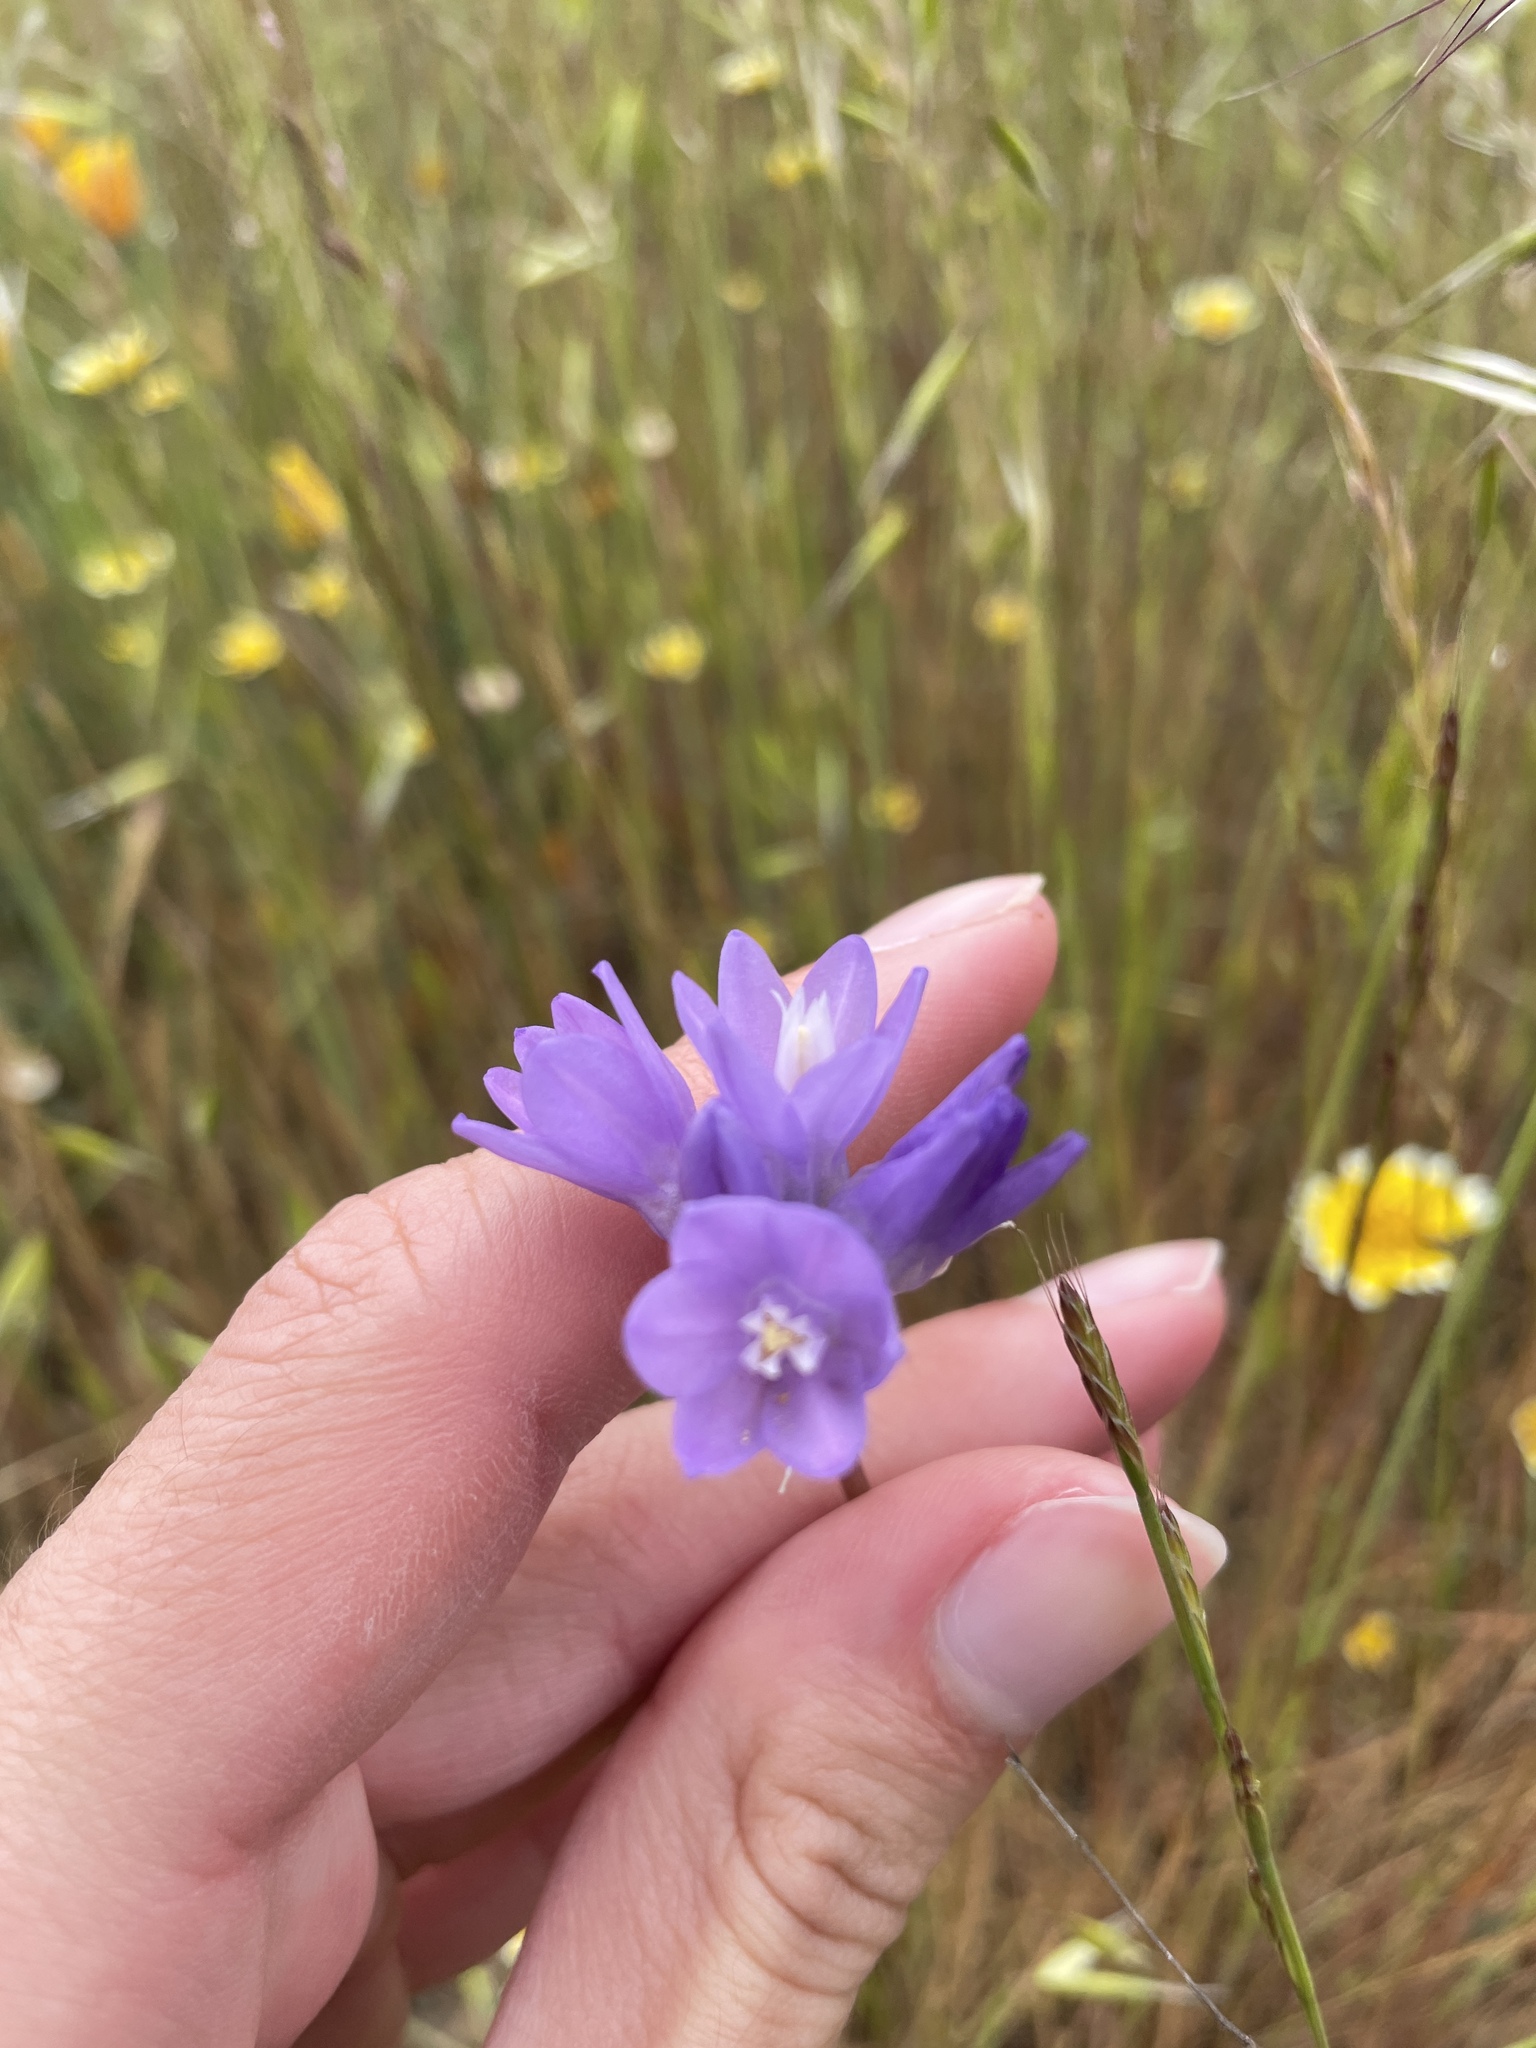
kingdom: Plantae
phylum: Tracheophyta
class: Liliopsida
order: Asparagales
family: Asparagaceae
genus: Dipterostemon
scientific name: Dipterostemon capitatus
